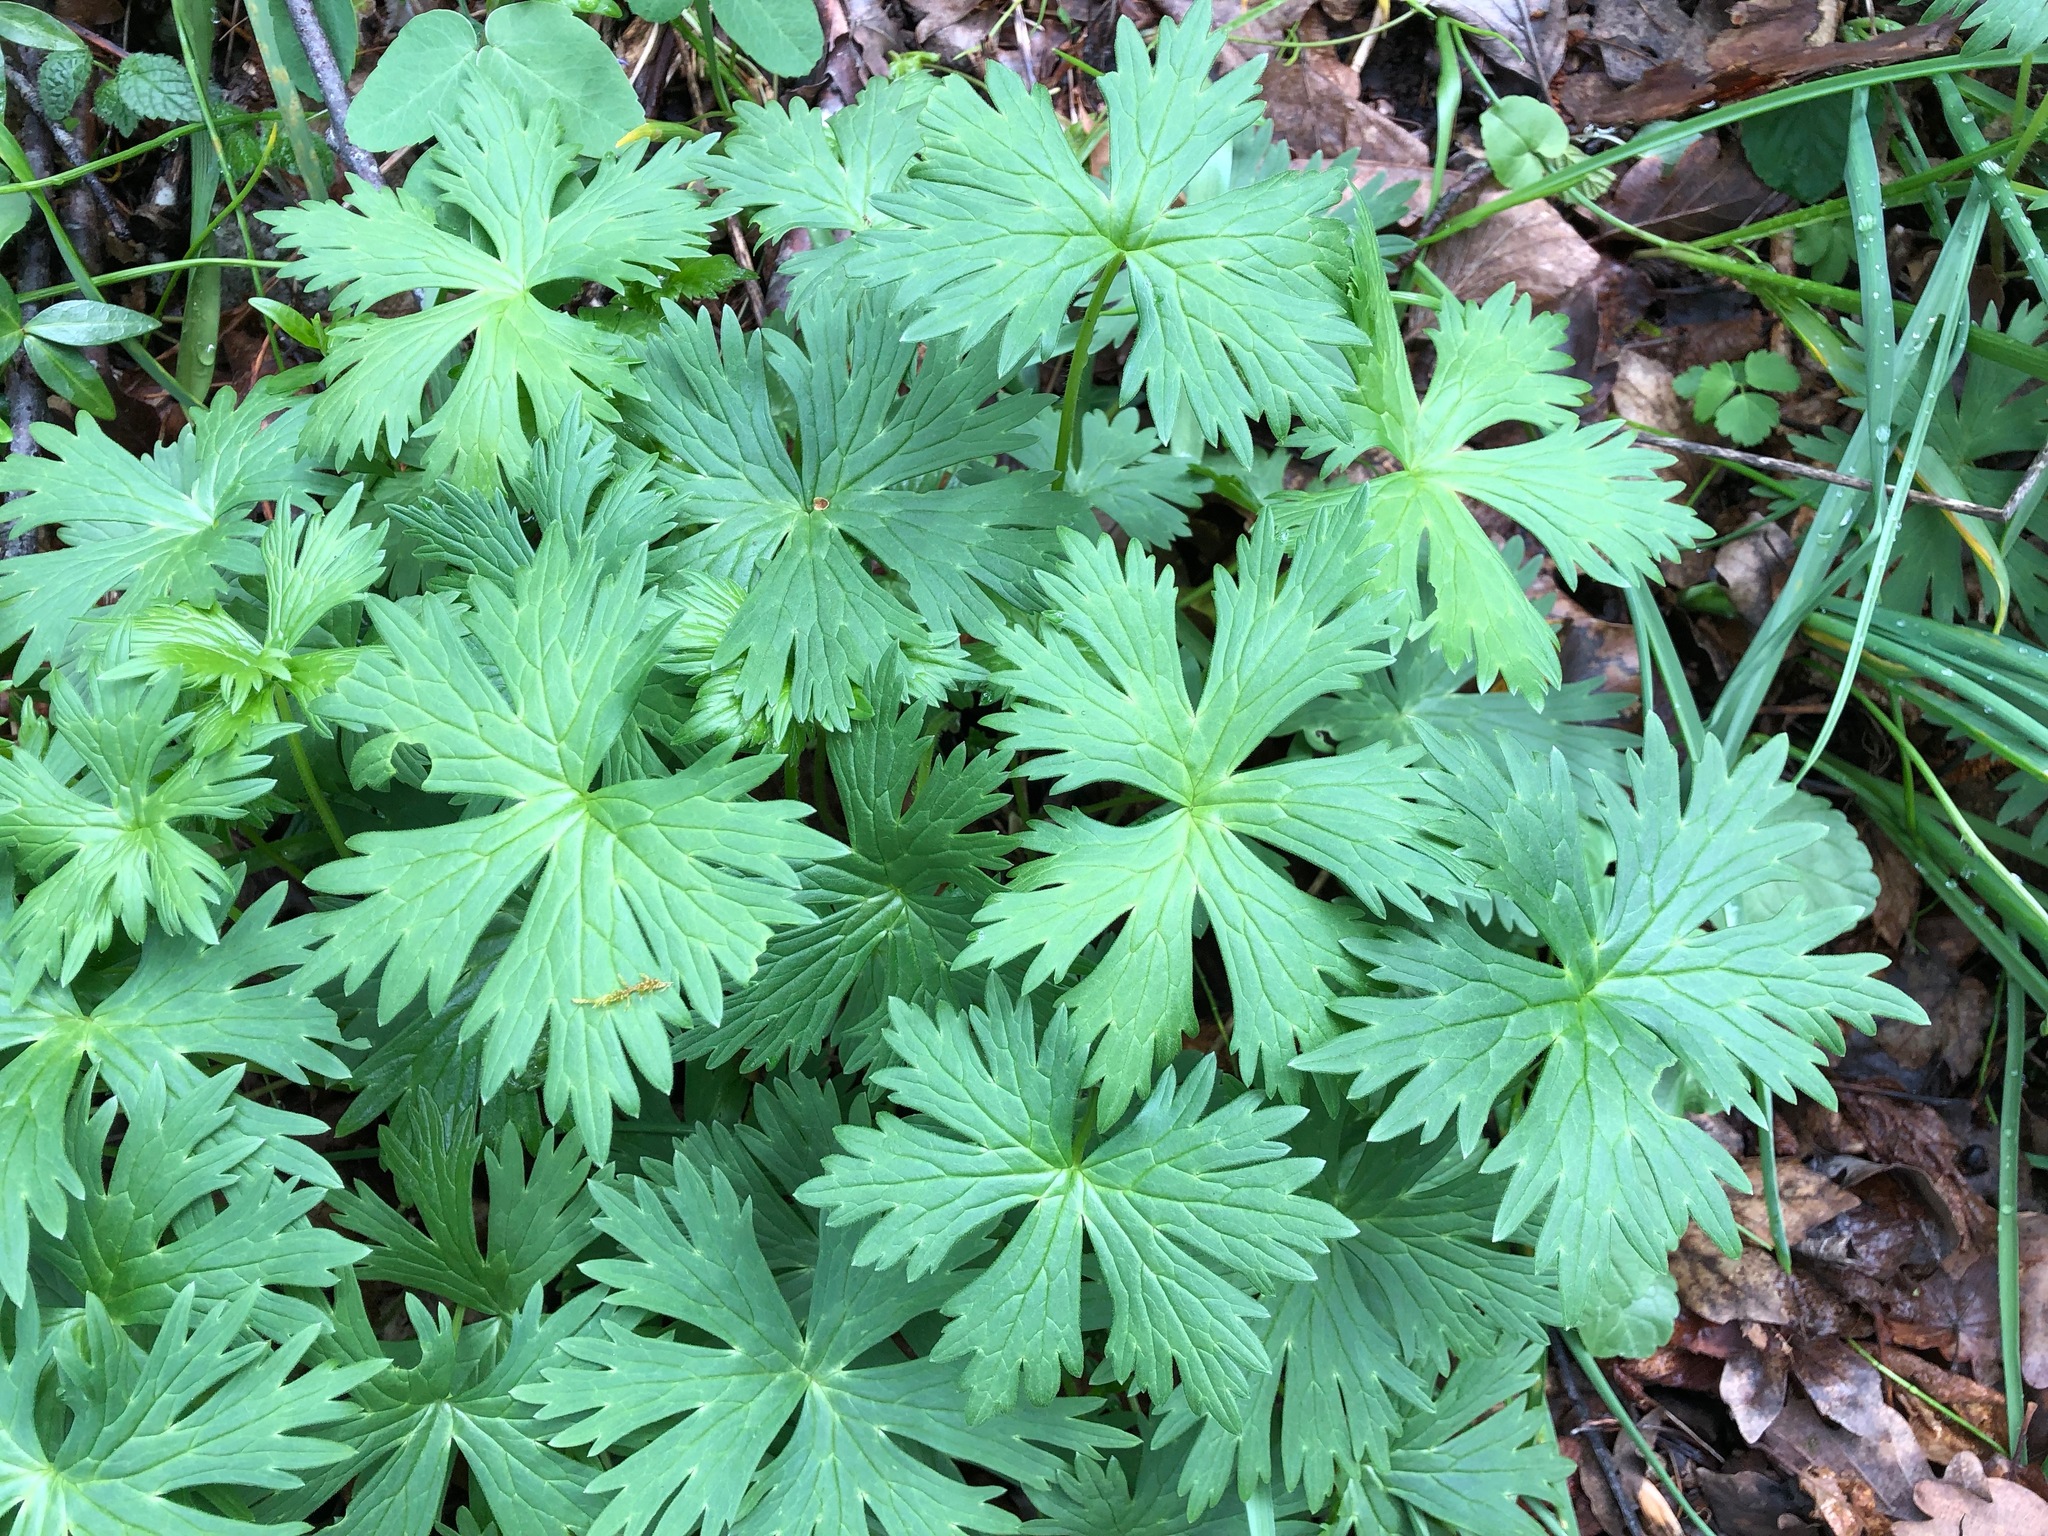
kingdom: Plantae
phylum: Tracheophyta
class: Magnoliopsida
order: Ranunculales
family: Ranunculaceae
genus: Trollius
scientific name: Trollius europaeus
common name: European globeflower
